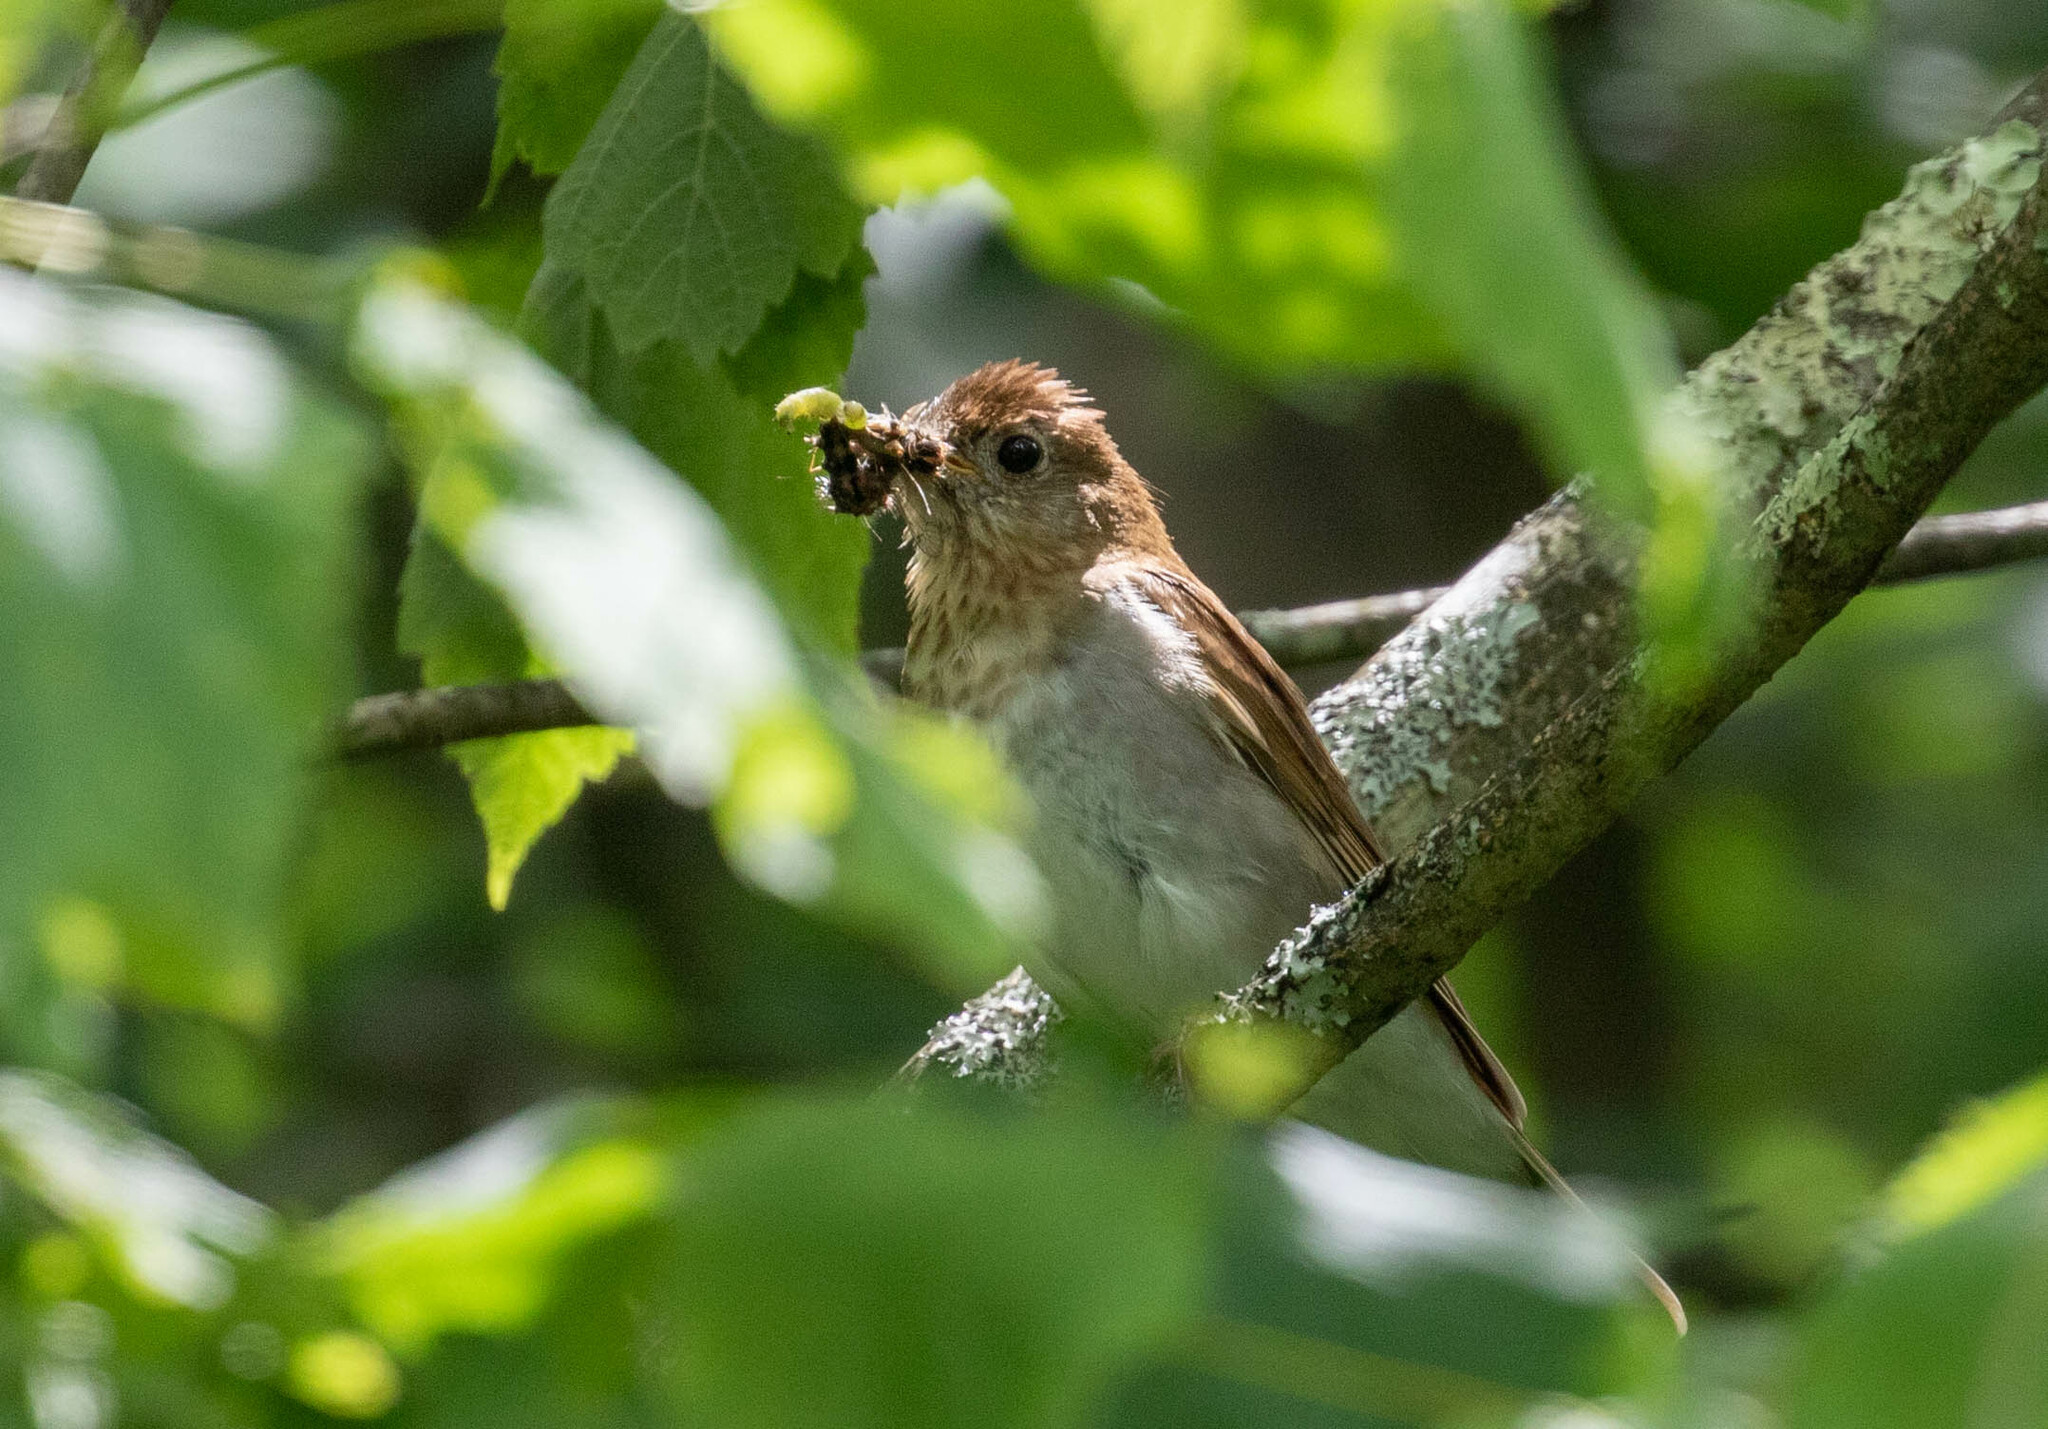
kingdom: Animalia
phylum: Chordata
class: Aves
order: Passeriformes
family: Turdidae
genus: Catharus
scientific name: Catharus fuscescens
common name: Veery
